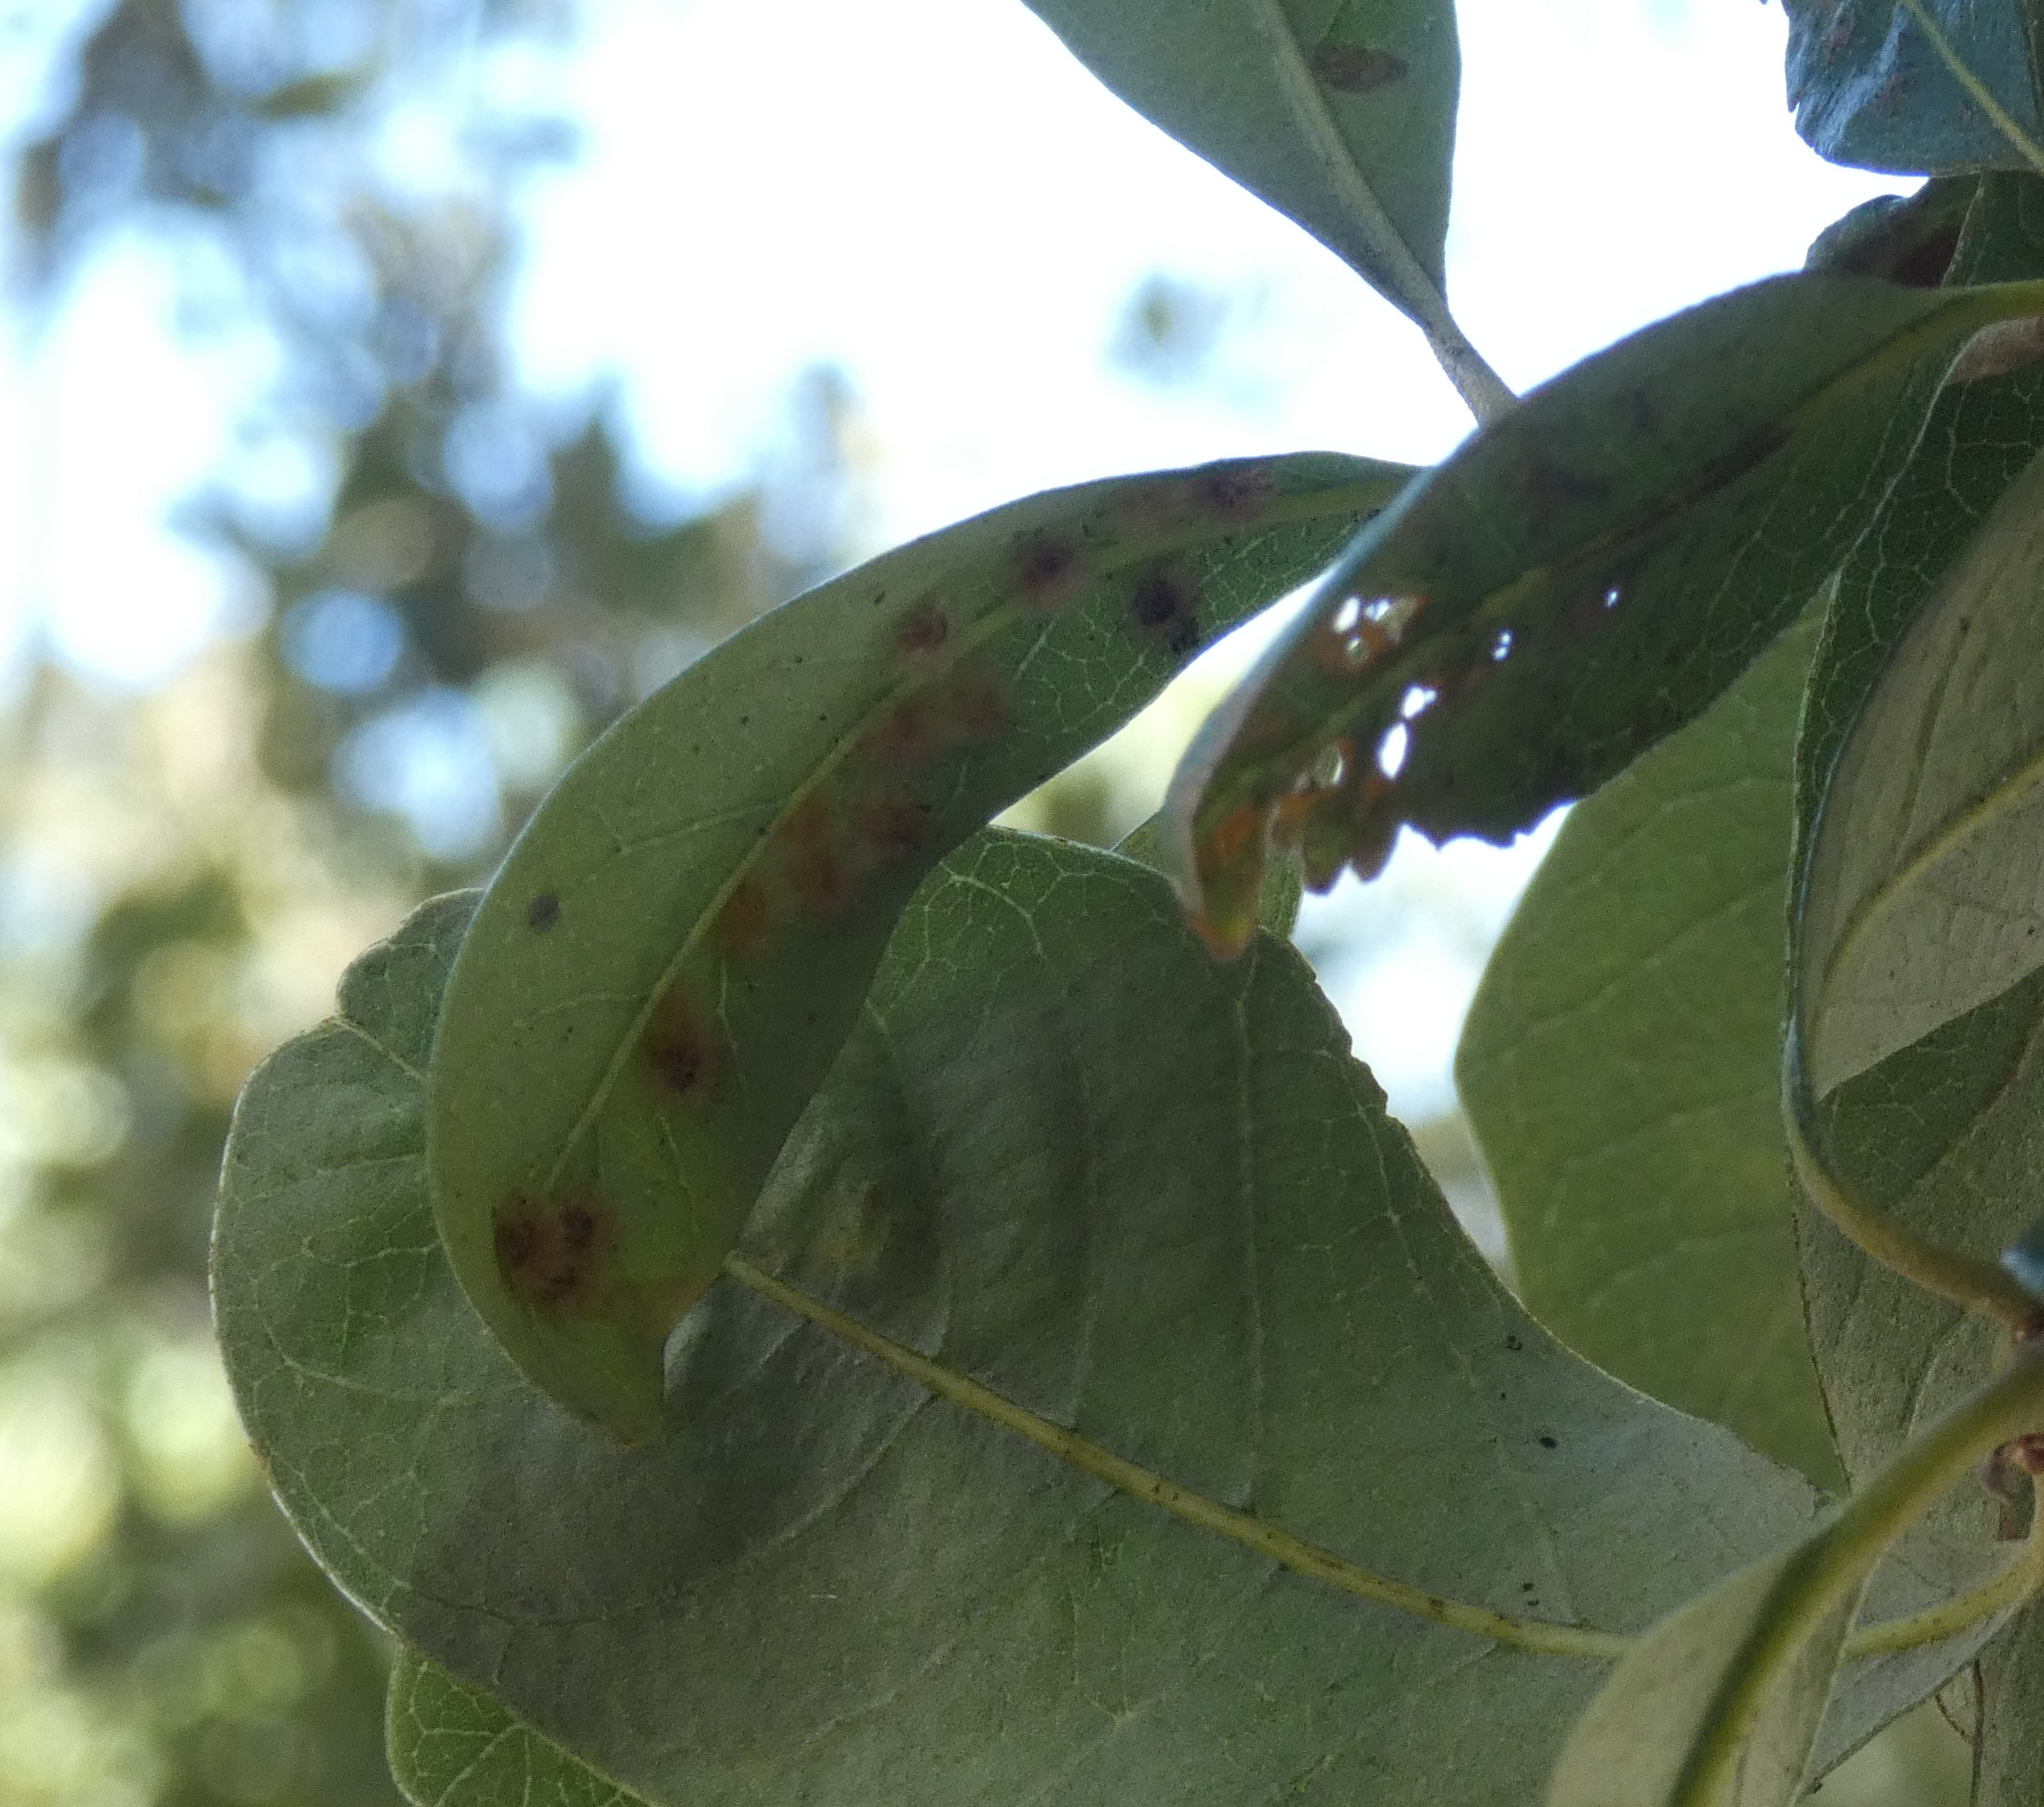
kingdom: Animalia
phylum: Arthropoda
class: Insecta
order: Hymenoptera
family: Cynipidae
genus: Neuroterus
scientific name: Neuroterus
